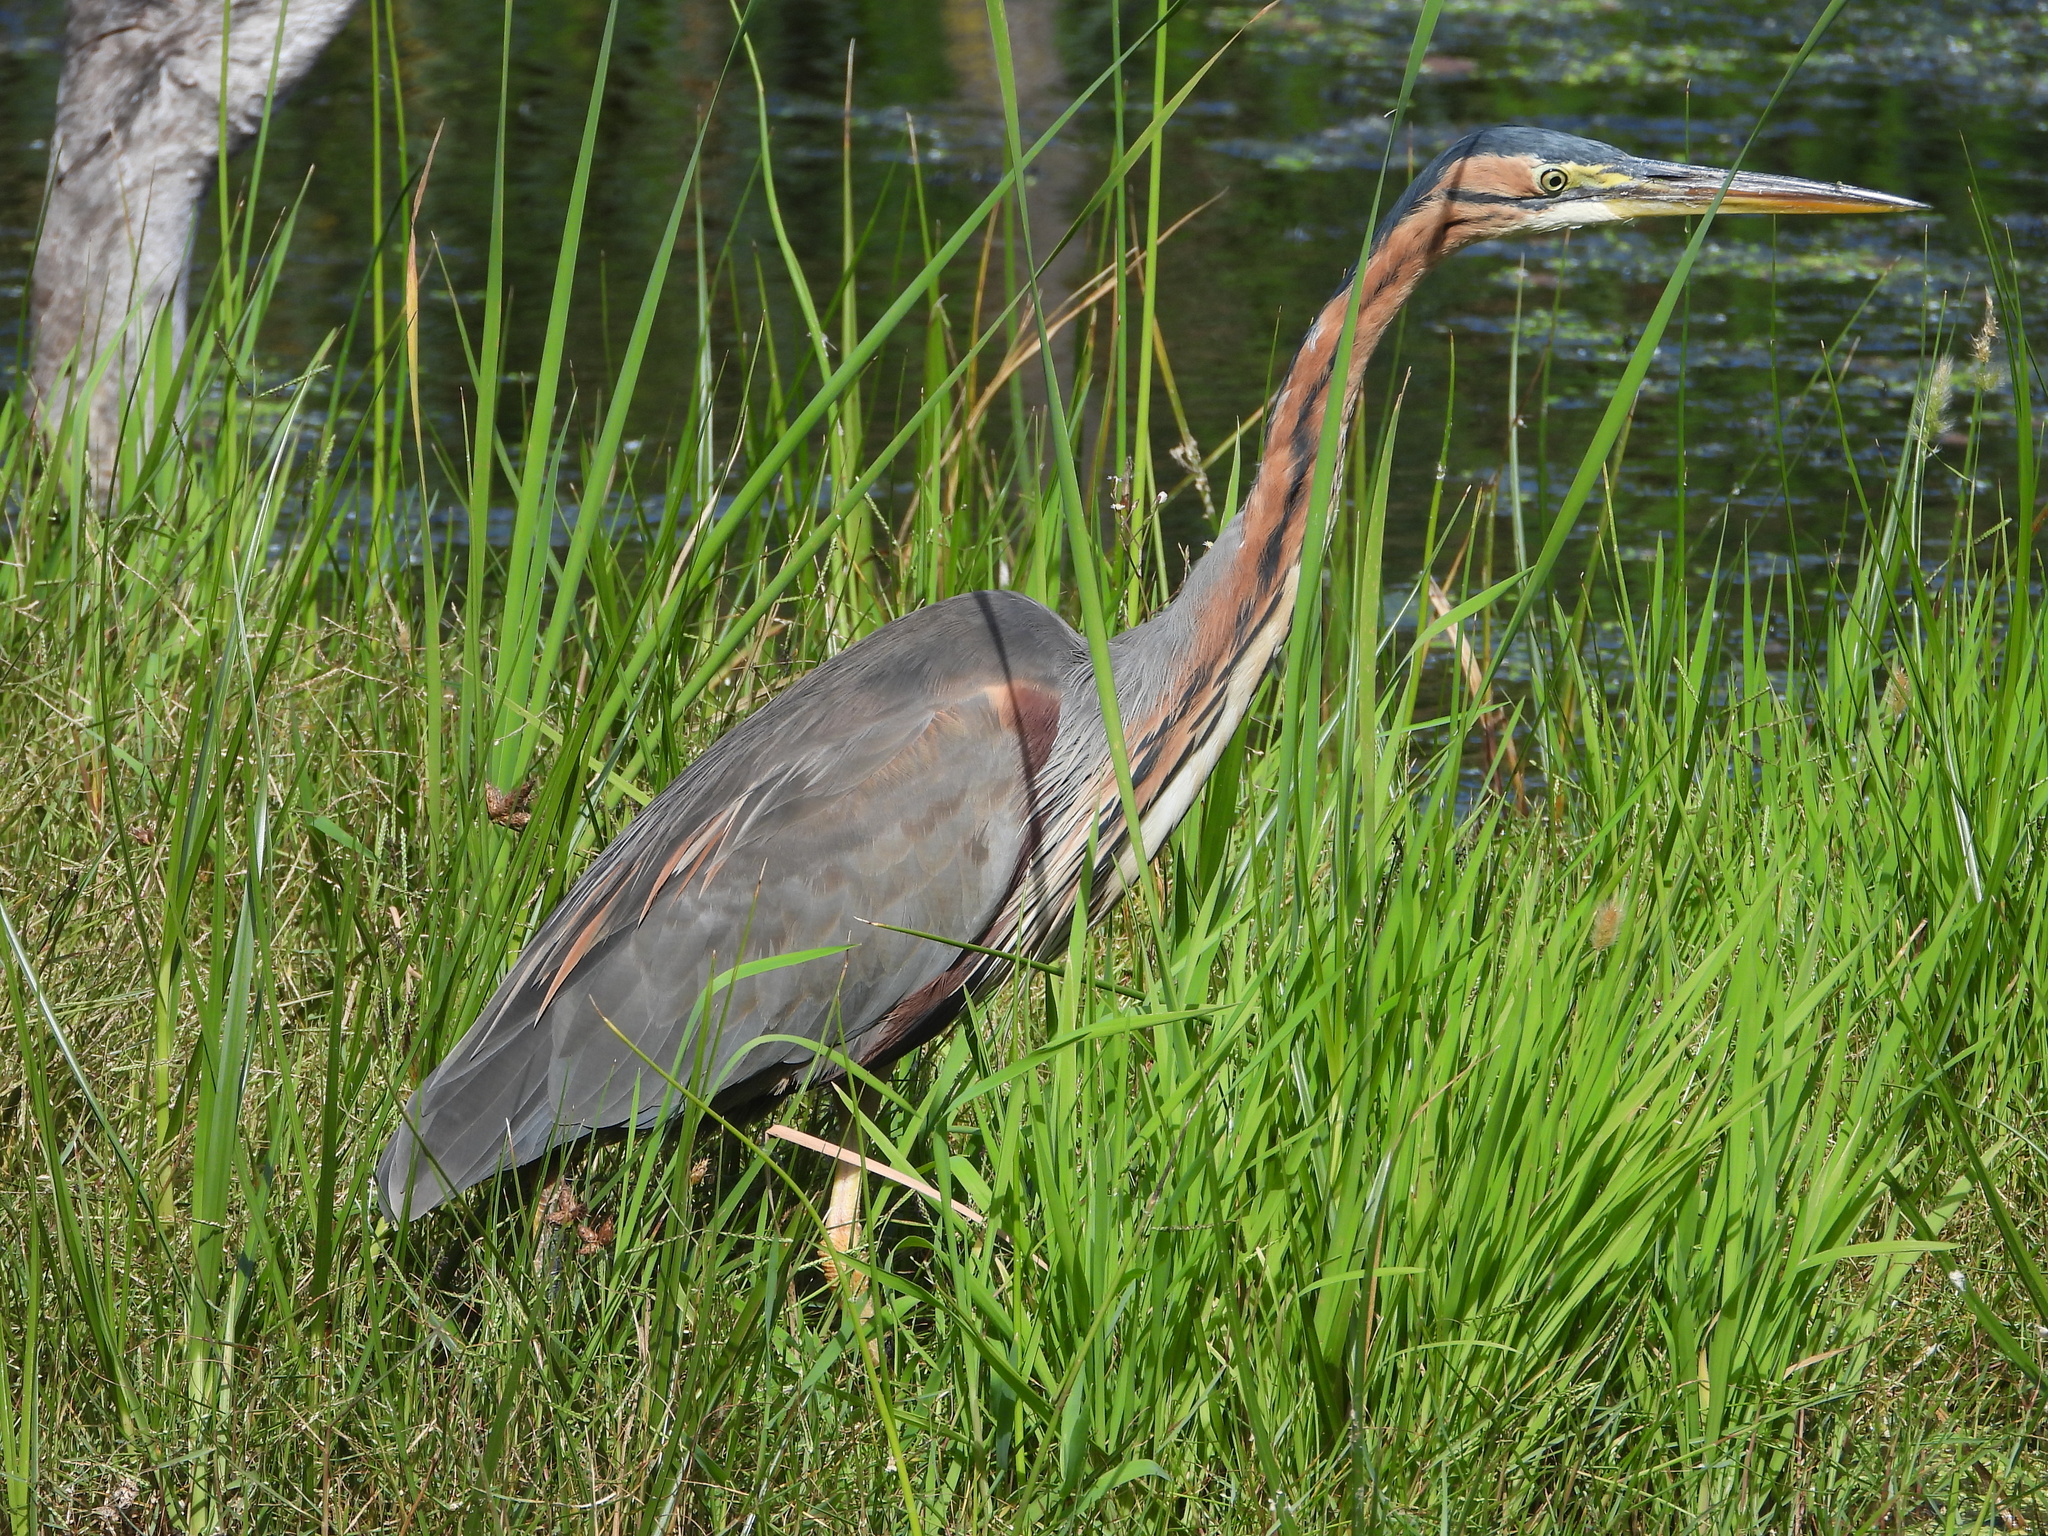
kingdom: Animalia
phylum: Chordata
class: Aves
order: Pelecaniformes
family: Ardeidae
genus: Ardea
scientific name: Ardea purpurea
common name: Purple heron
